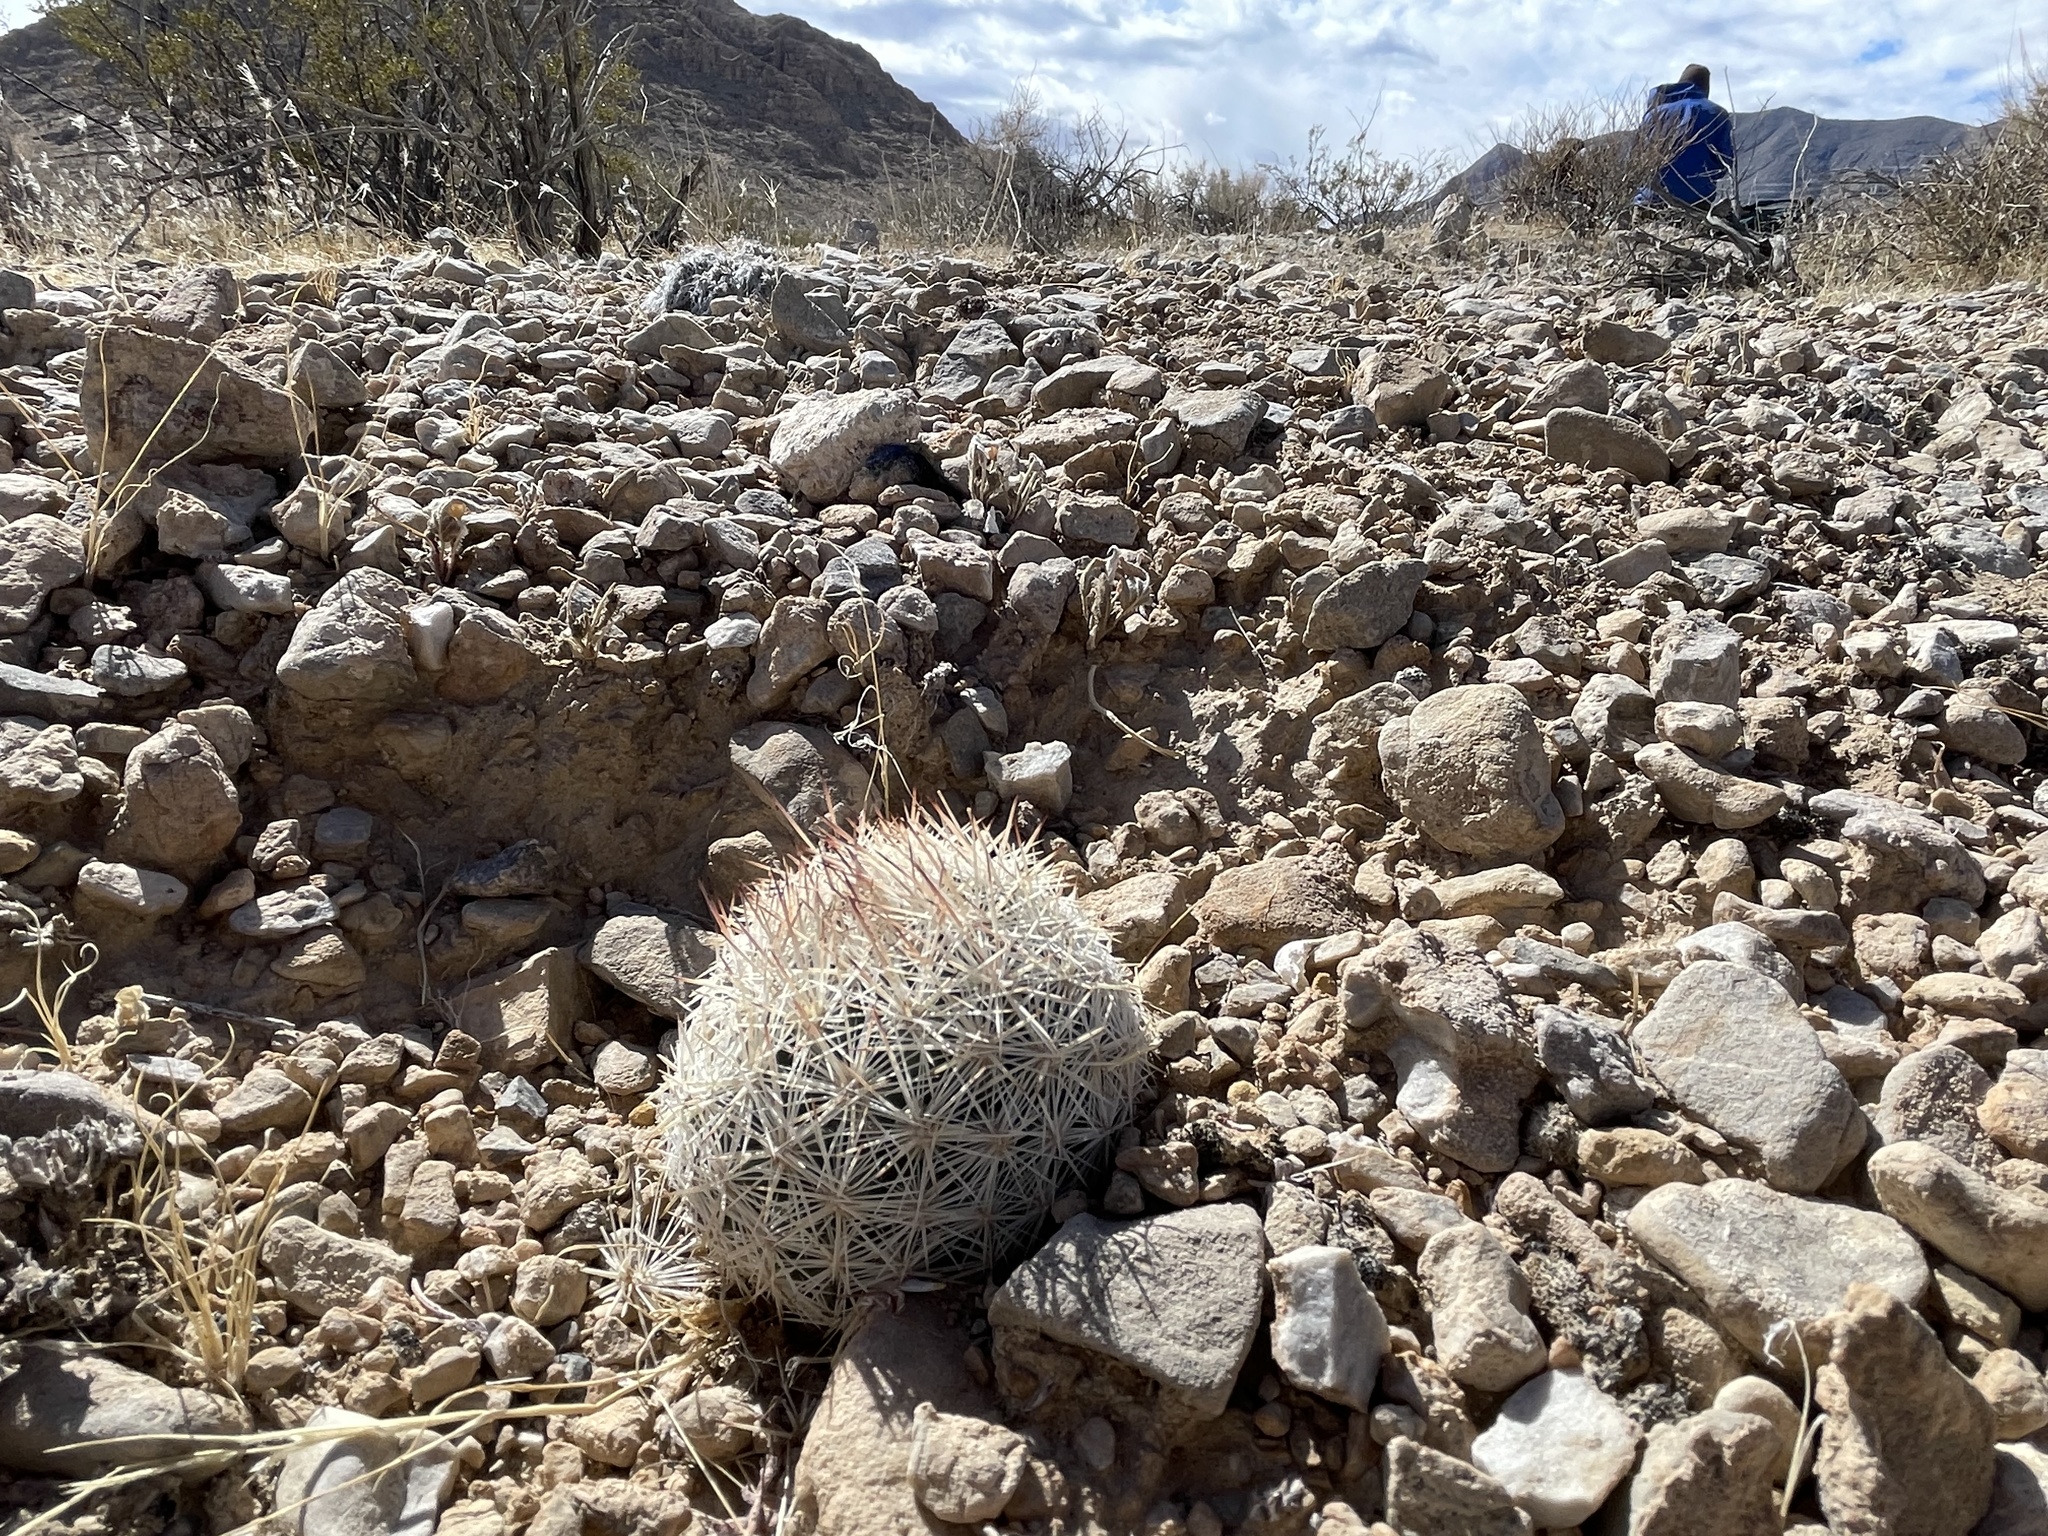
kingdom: Plantae
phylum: Tracheophyta
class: Magnoliopsida
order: Caryophyllales
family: Cactaceae
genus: Pelecyphora
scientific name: Pelecyphora dasyacantha
